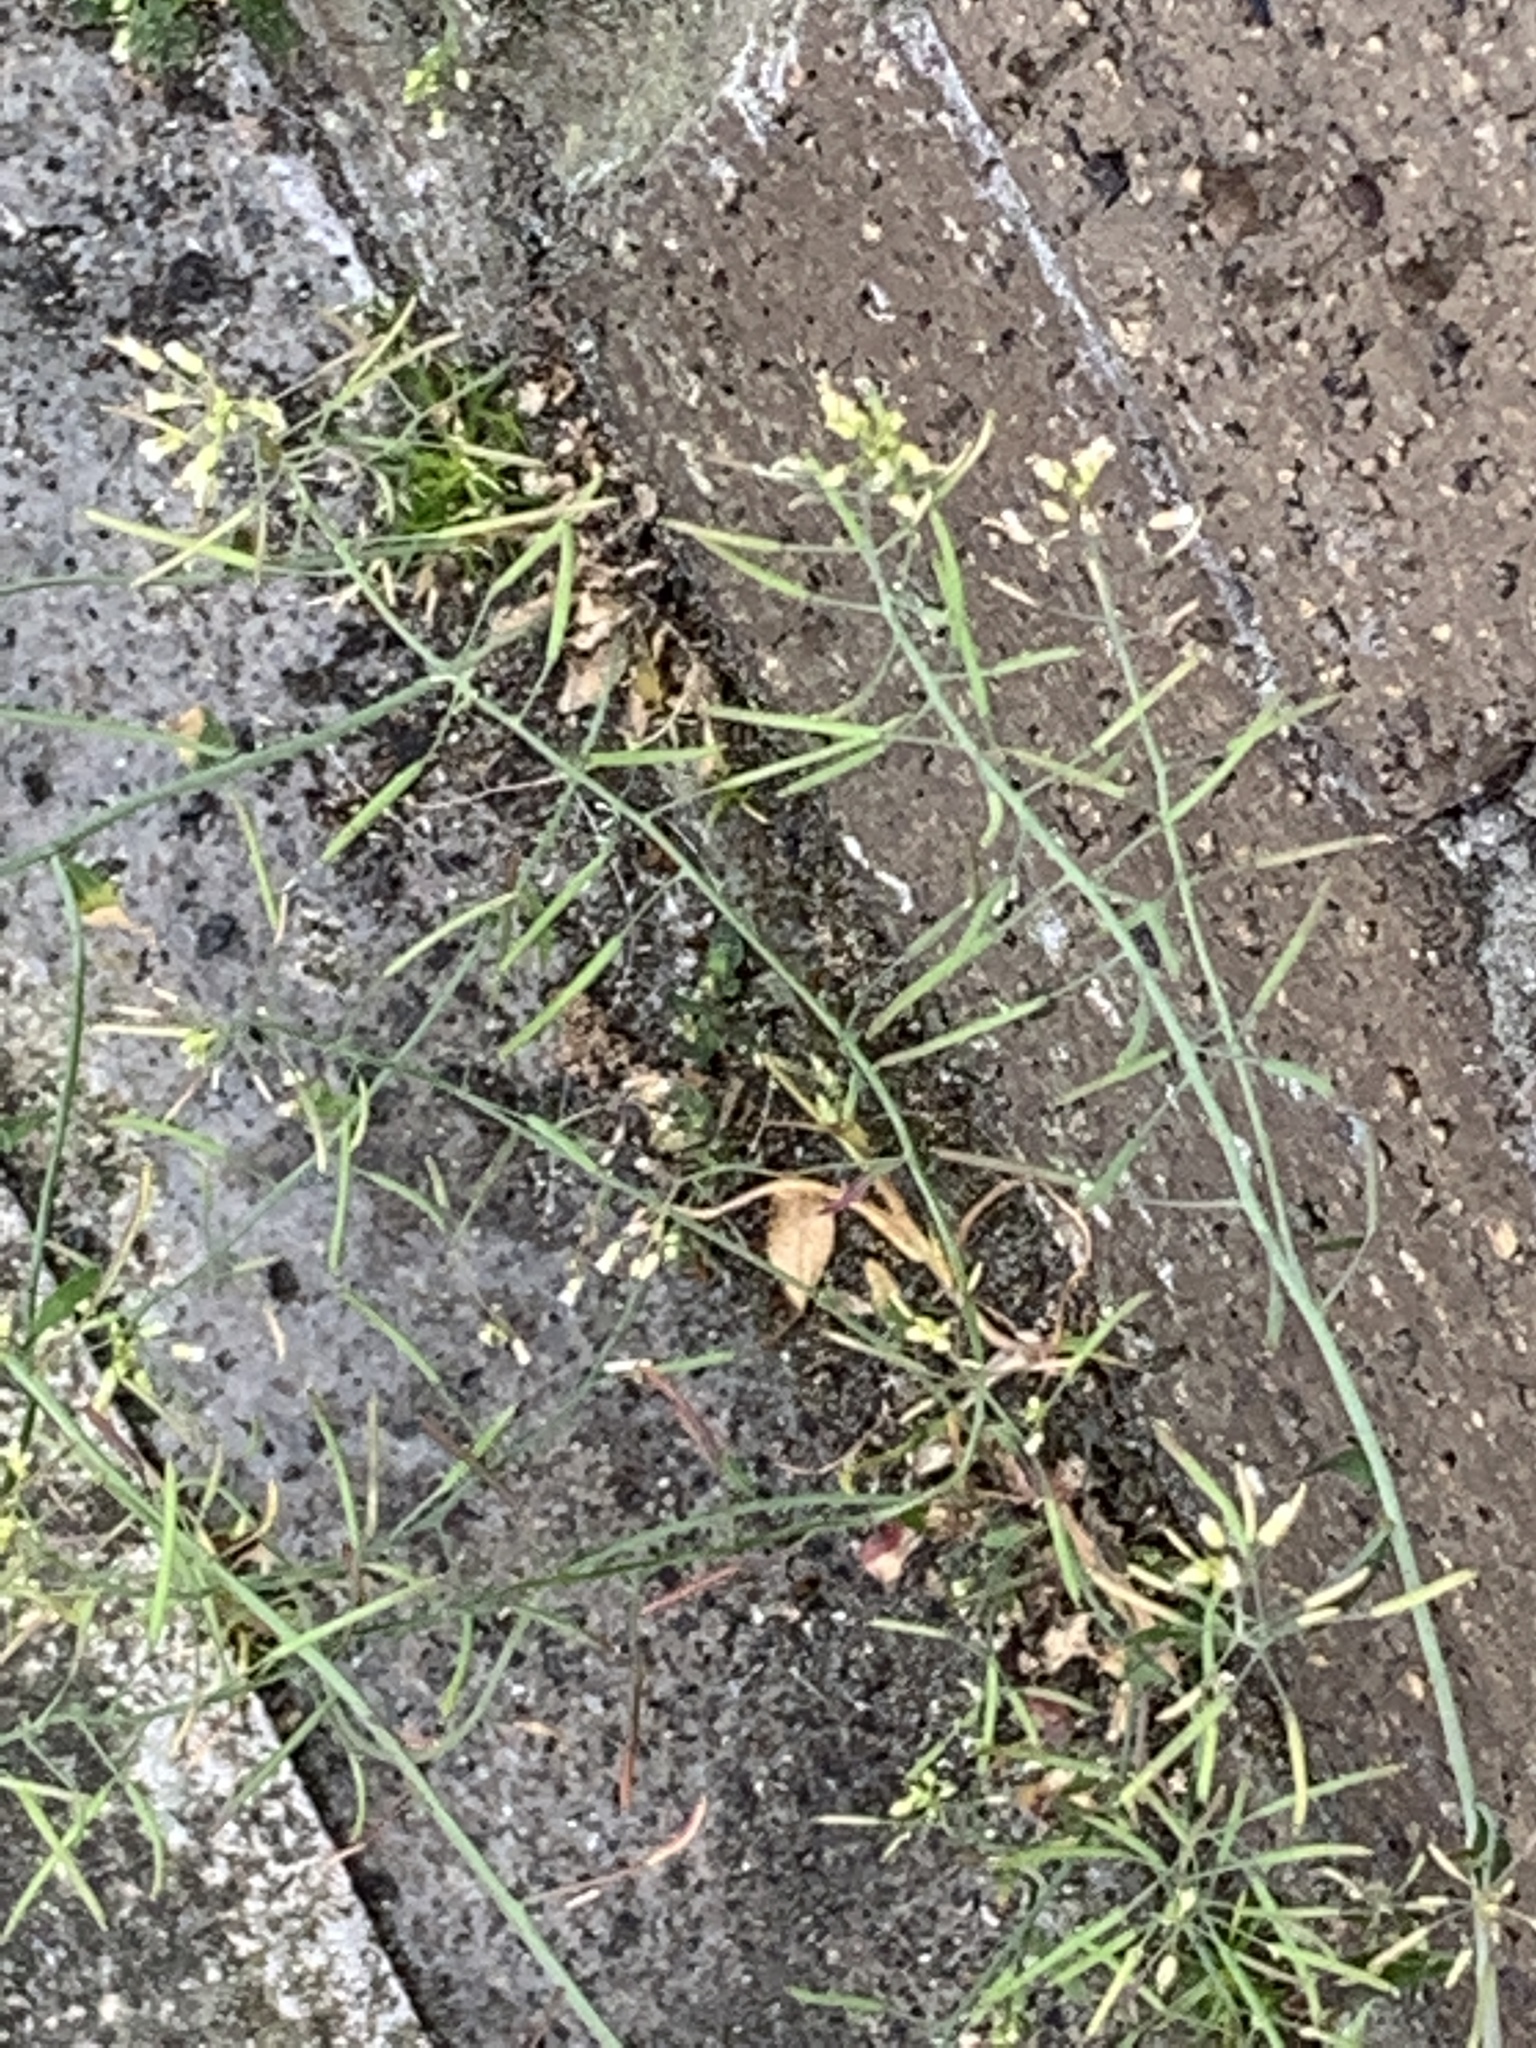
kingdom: Plantae
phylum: Tracheophyta
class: Magnoliopsida
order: Brassicales
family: Brassicaceae
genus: Arabidopsis
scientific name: Arabidopsis thaliana
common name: Thale cress
